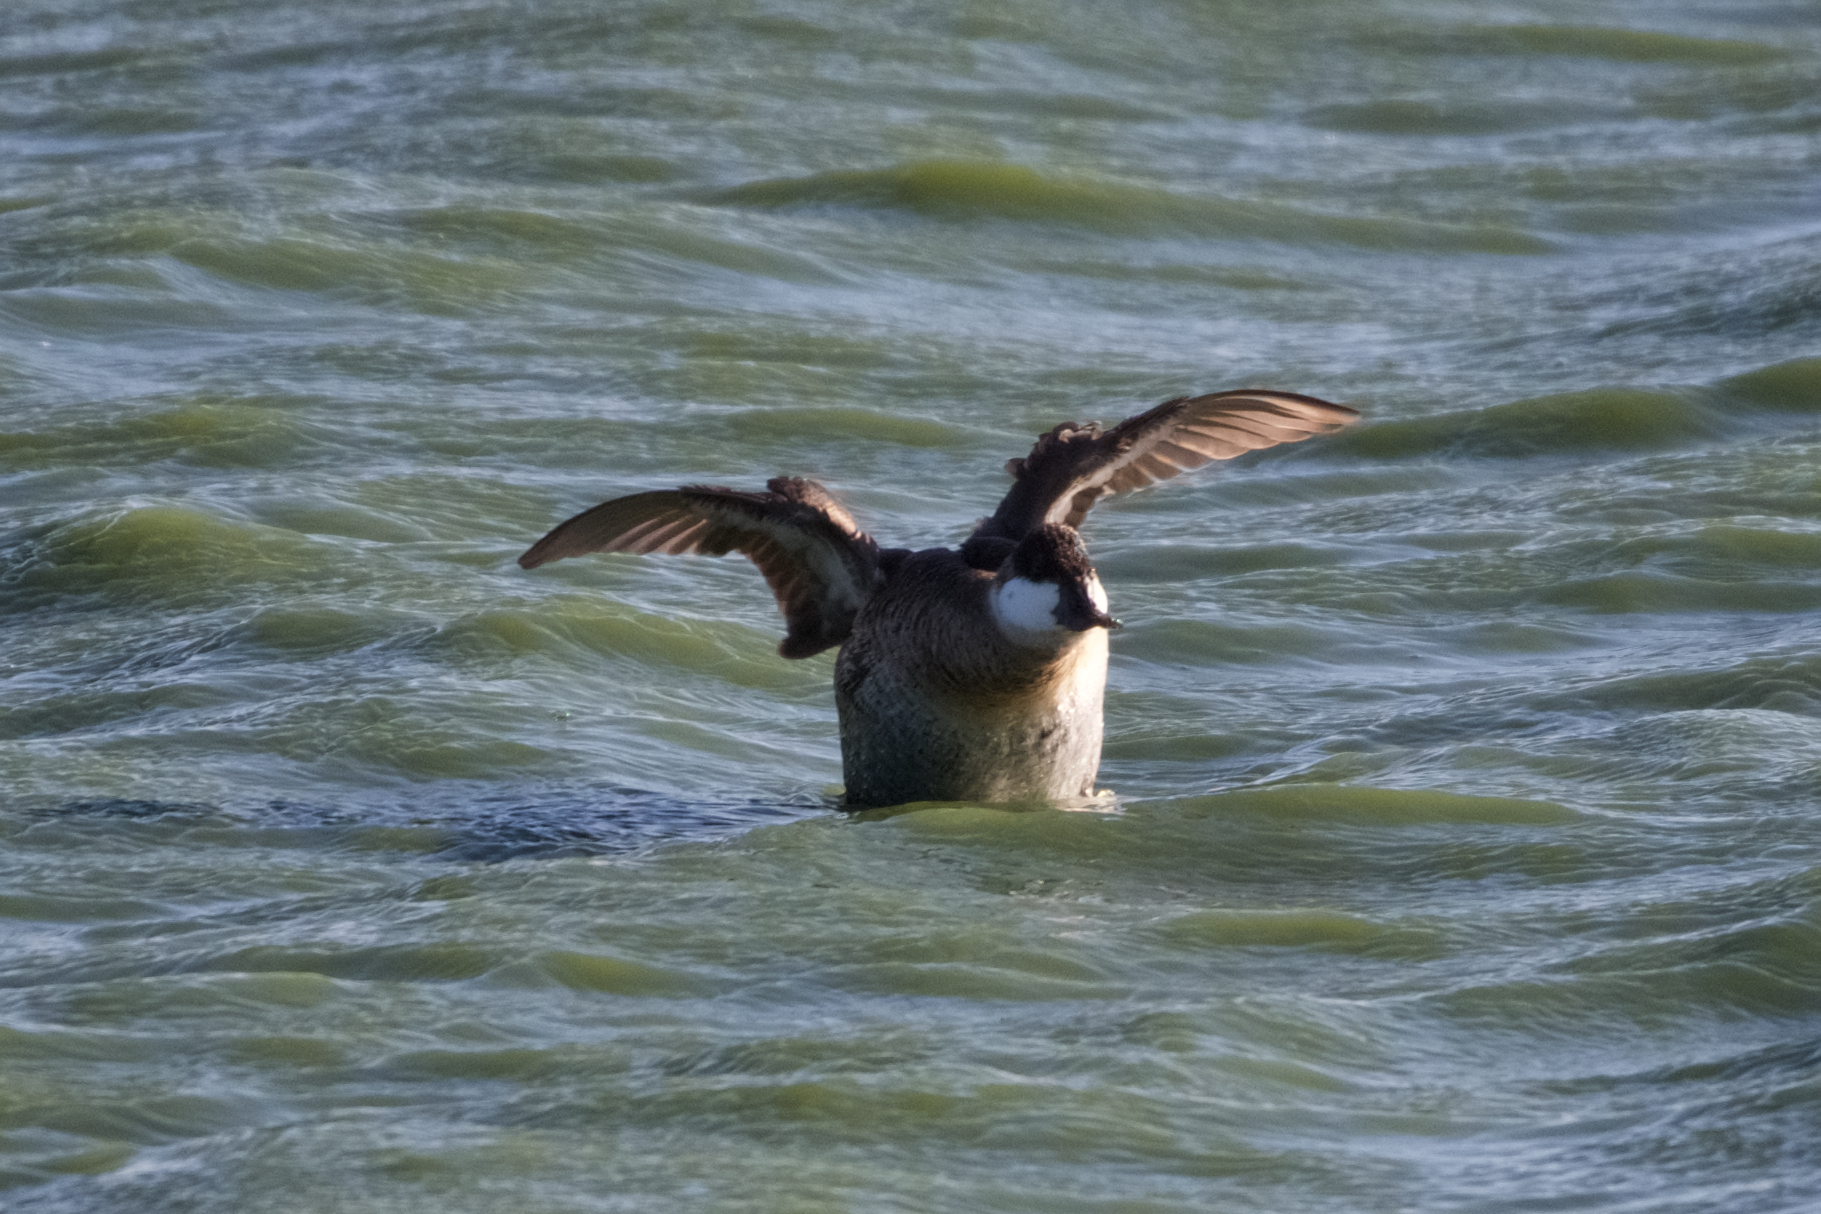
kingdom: Animalia
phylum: Chordata
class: Aves
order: Anseriformes
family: Anatidae
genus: Oxyura
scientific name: Oxyura jamaicensis
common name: Ruddy duck
